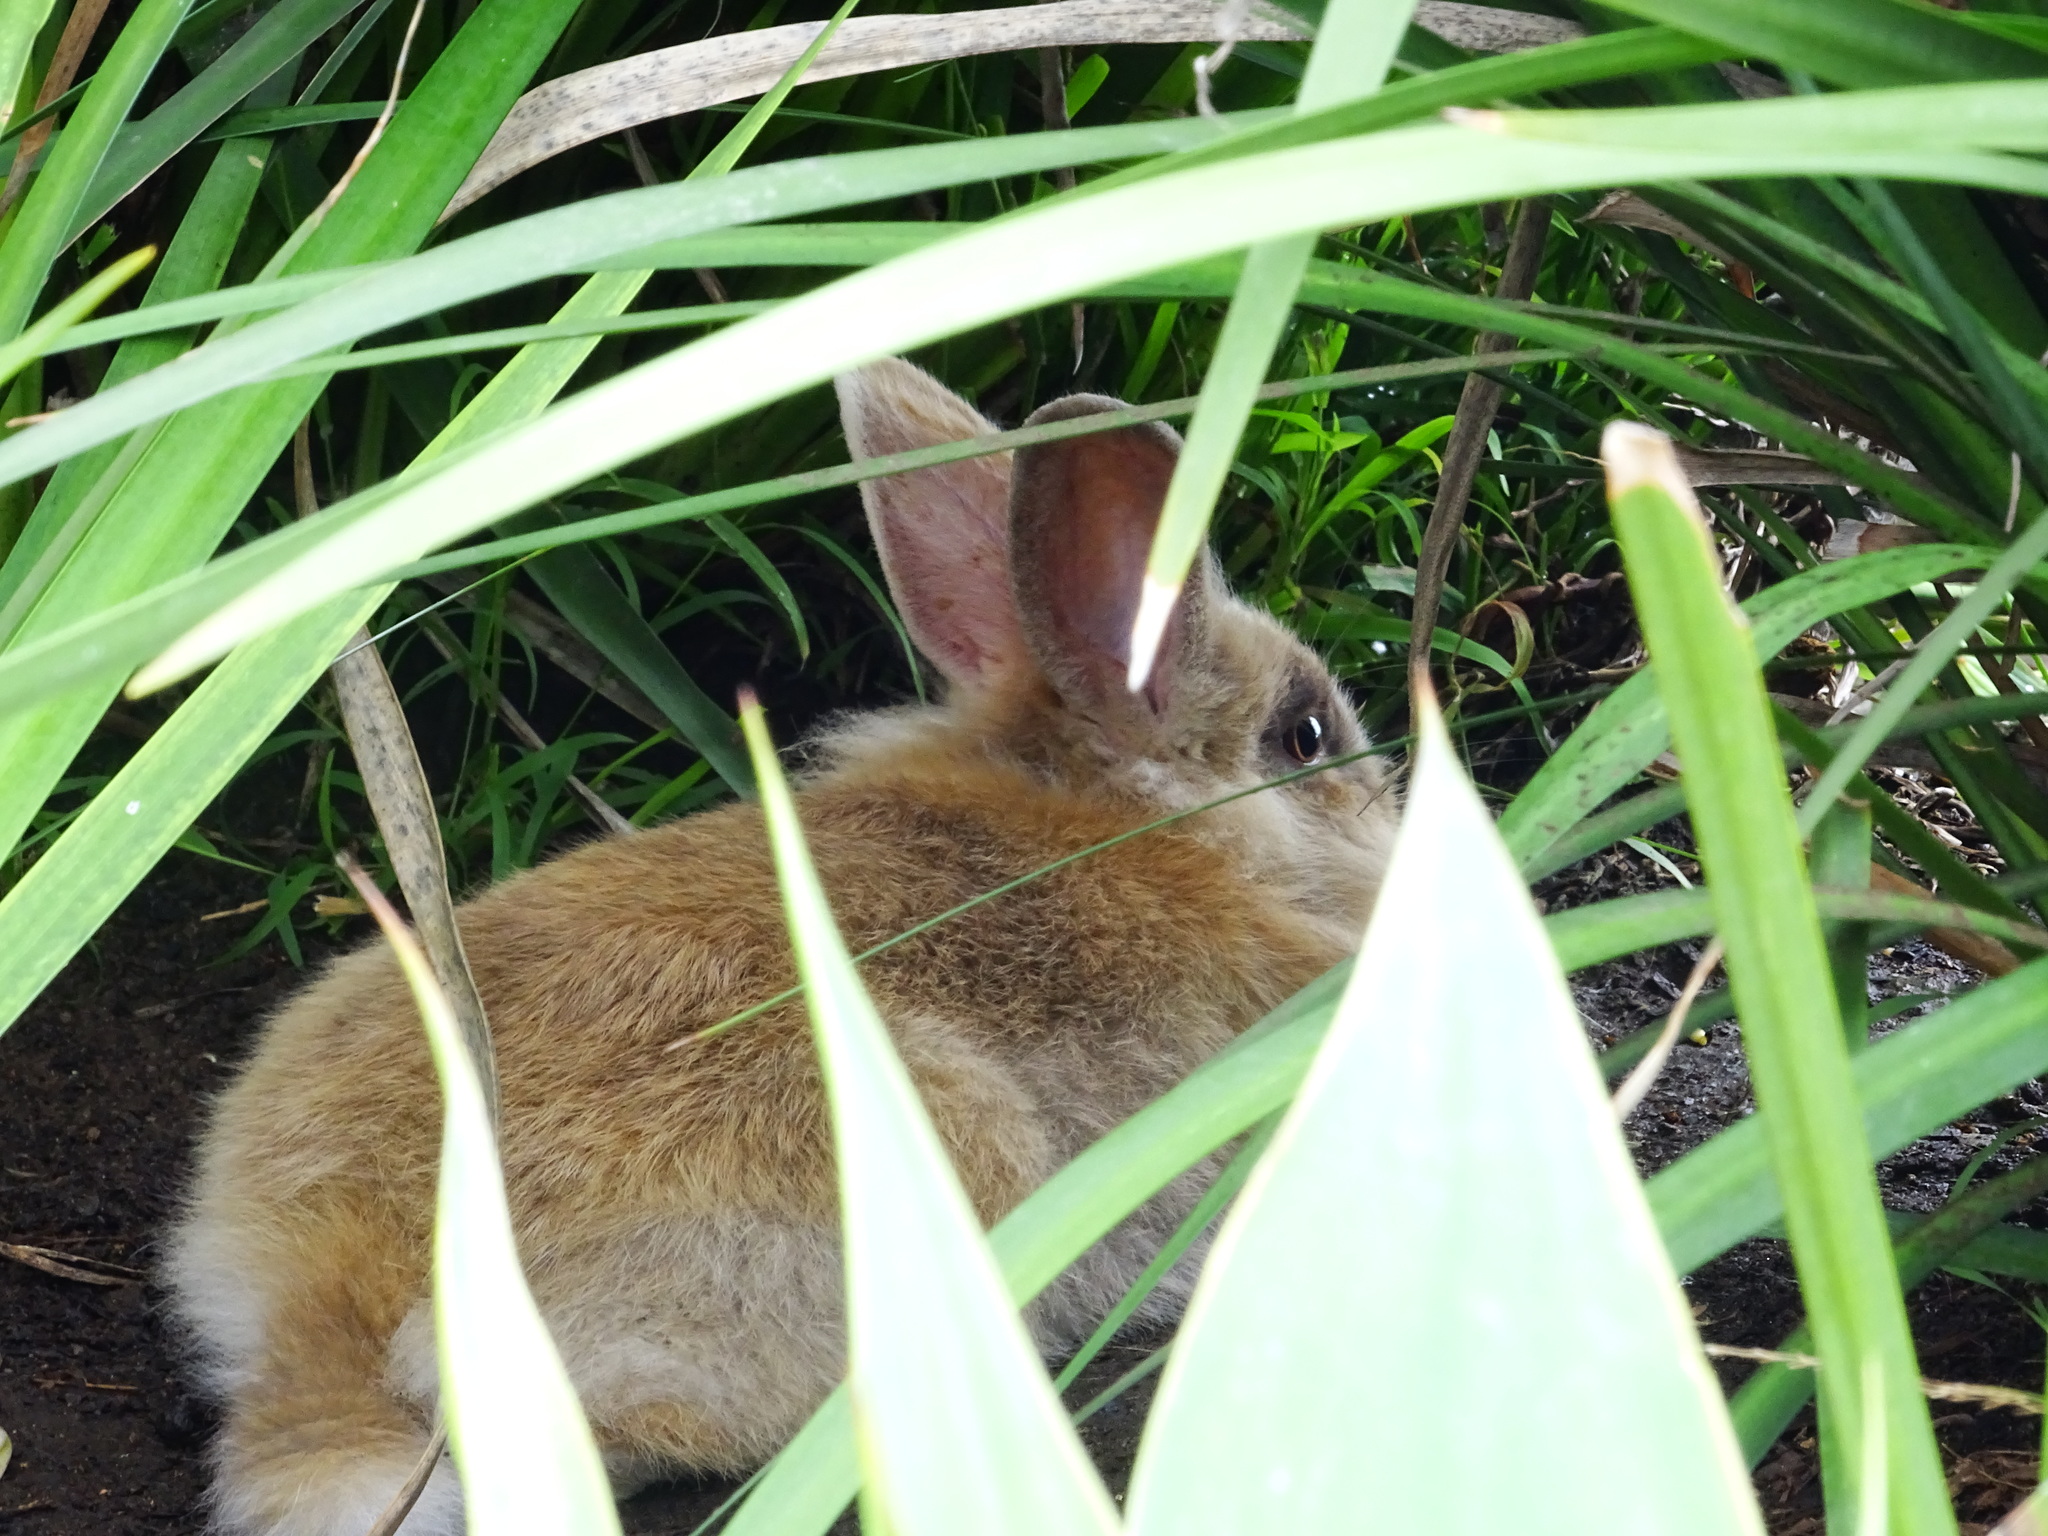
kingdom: Animalia
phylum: Chordata
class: Mammalia
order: Lagomorpha
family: Leporidae
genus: Oryctolagus
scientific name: Oryctolagus cuniculus
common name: European rabbit
